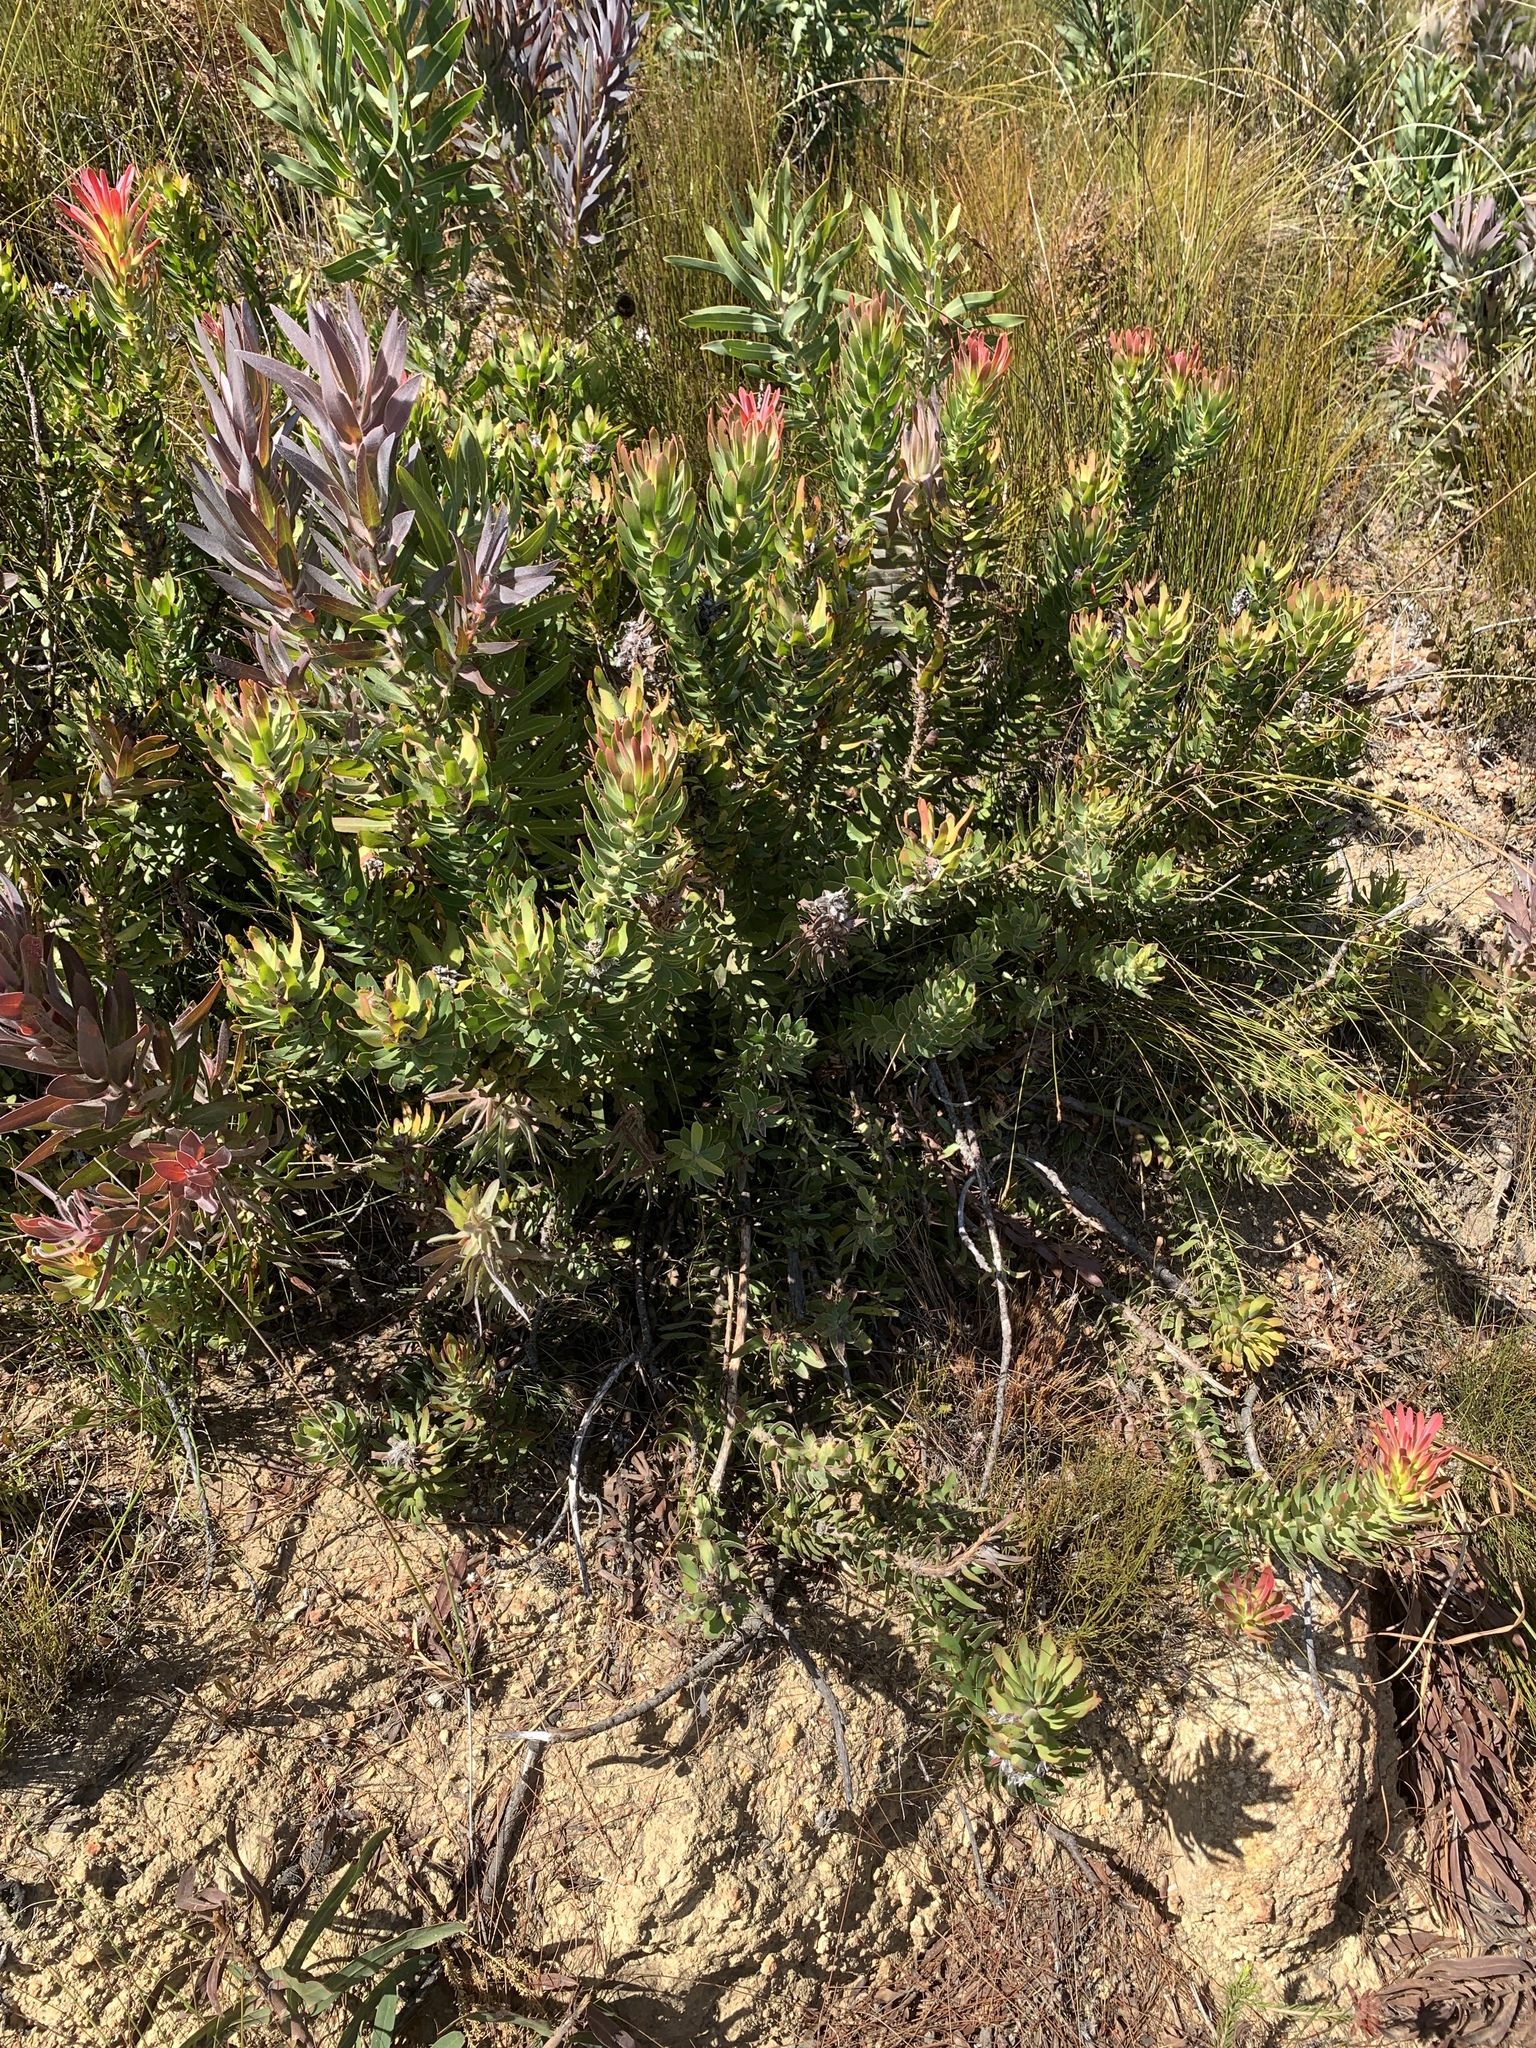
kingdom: Plantae
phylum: Tracheophyta
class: Magnoliopsida
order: Proteales
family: Proteaceae
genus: Mimetes
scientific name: Mimetes cucullatus
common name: Common pagoda
